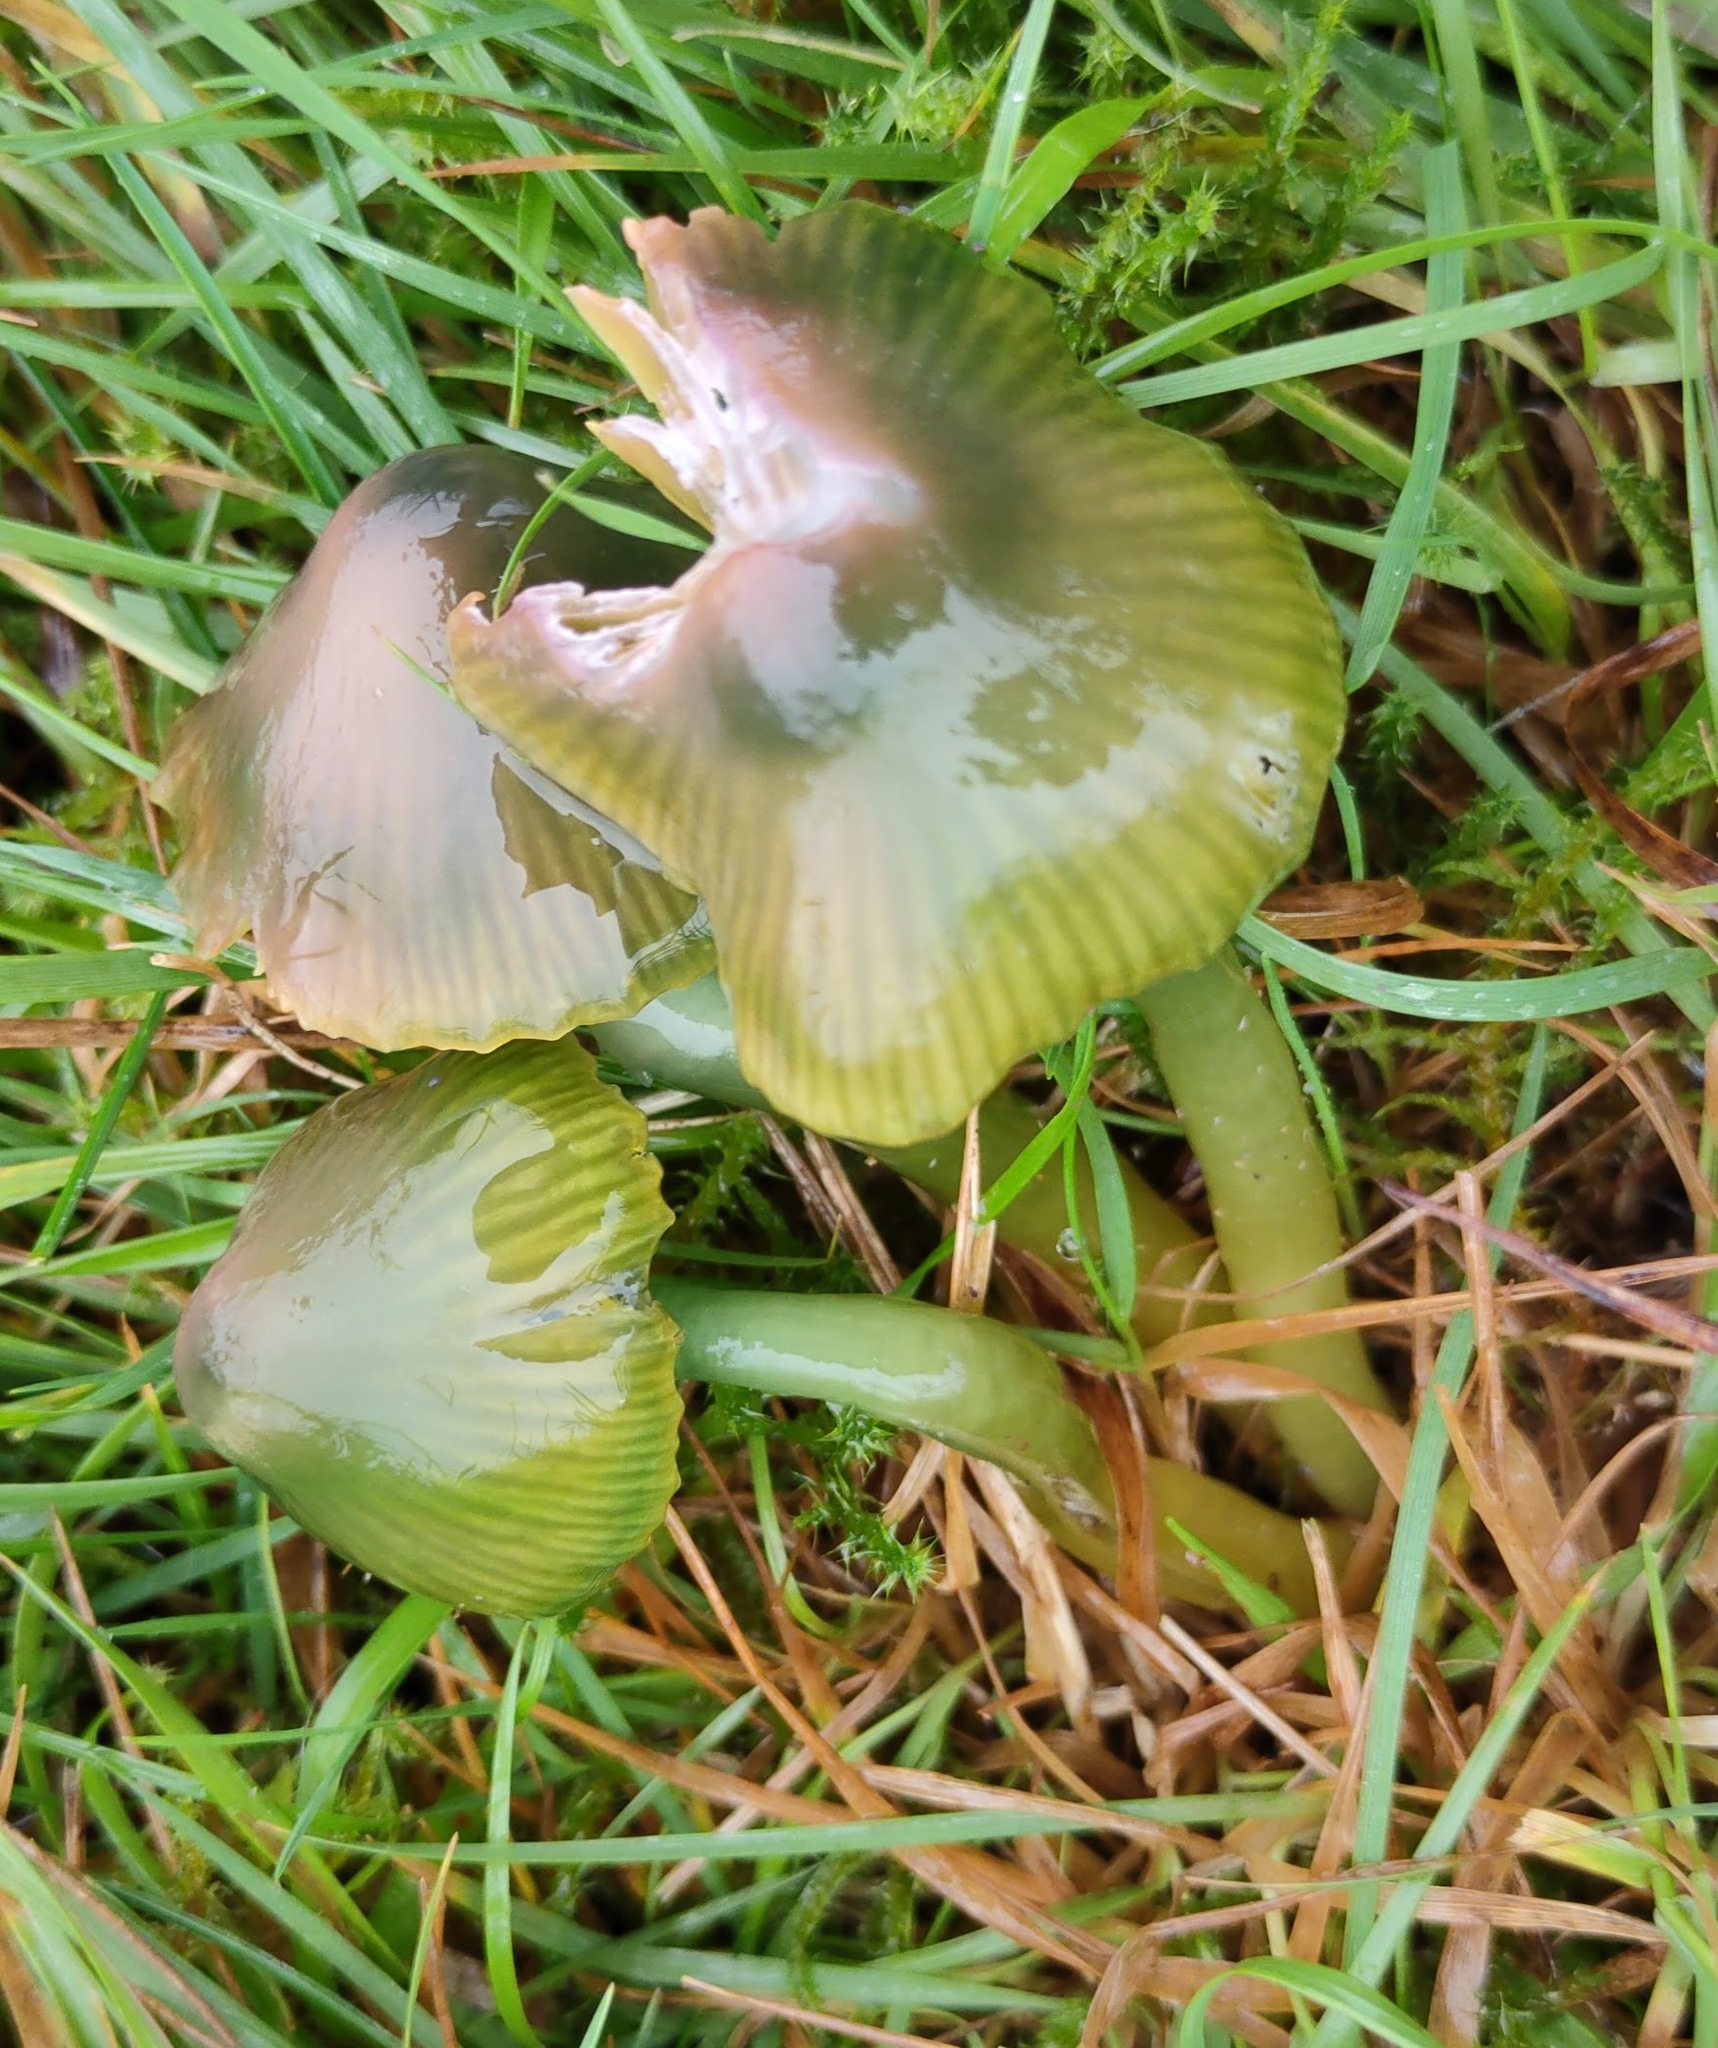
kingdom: Fungi
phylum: Basidiomycota
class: Agaricomycetes
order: Agaricales
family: Hygrophoraceae
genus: Gliophorus
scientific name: Gliophorus psittacinus
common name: Parrot wax-cap
